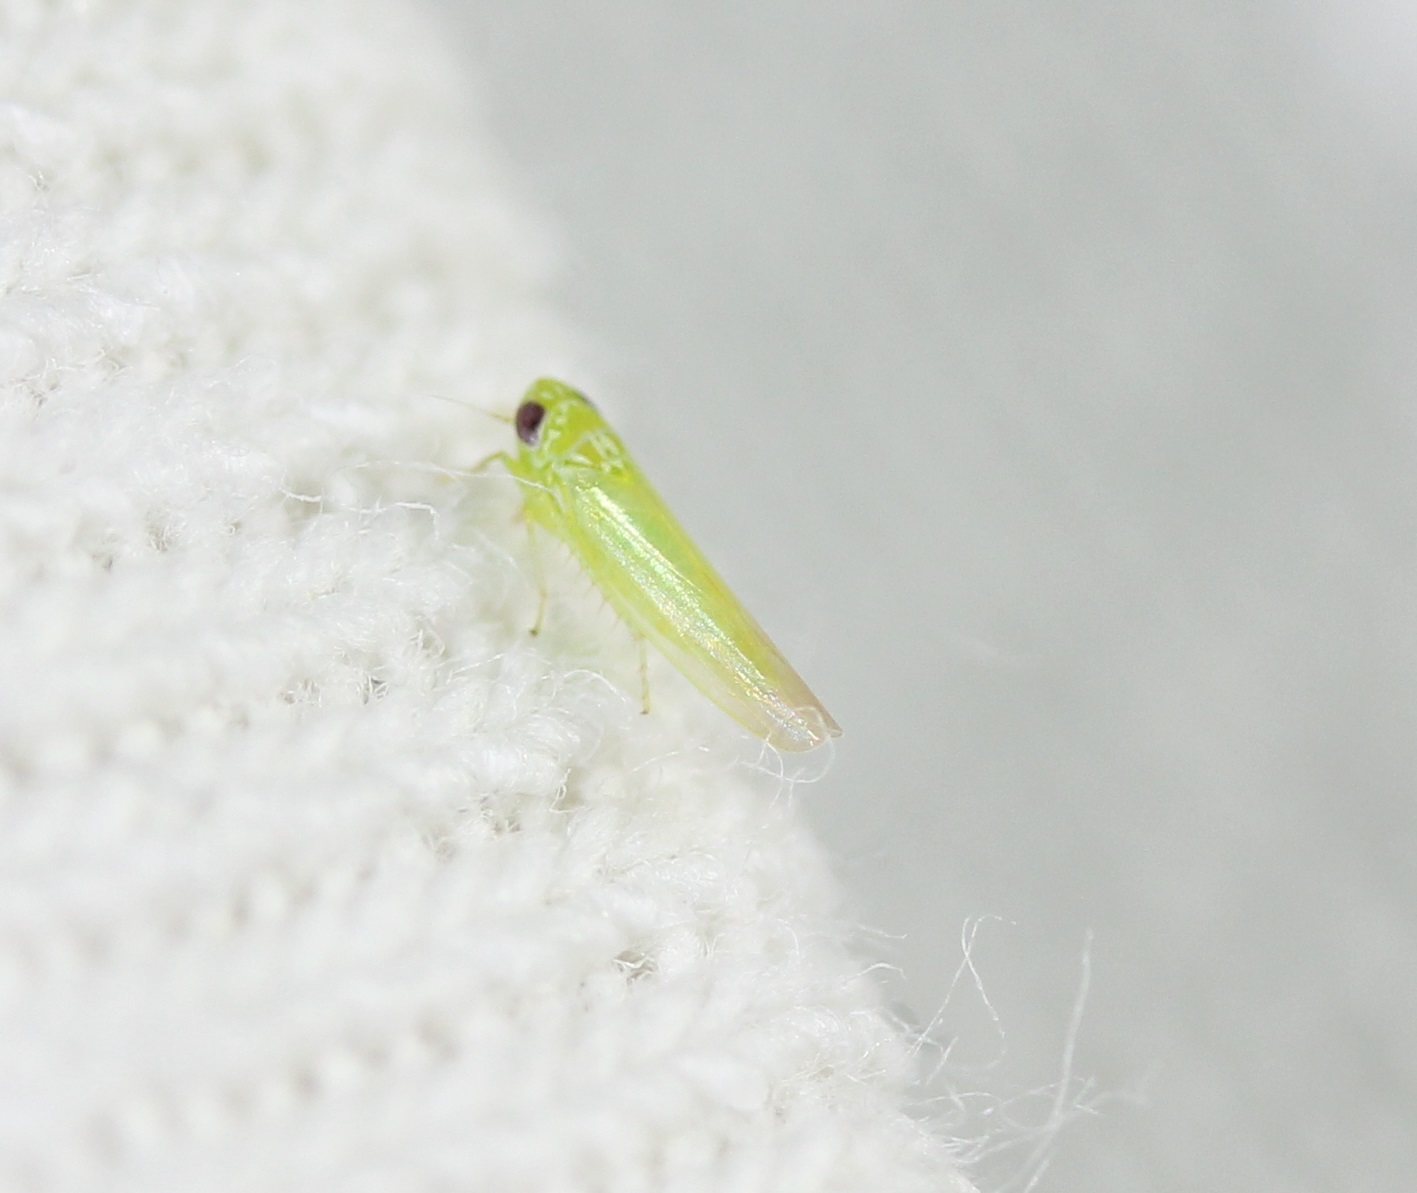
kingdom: Animalia
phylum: Arthropoda
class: Insecta
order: Hemiptera
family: Cicadellidae
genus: Empoasca
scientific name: Empoasca fabae
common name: Potato leafhopper
